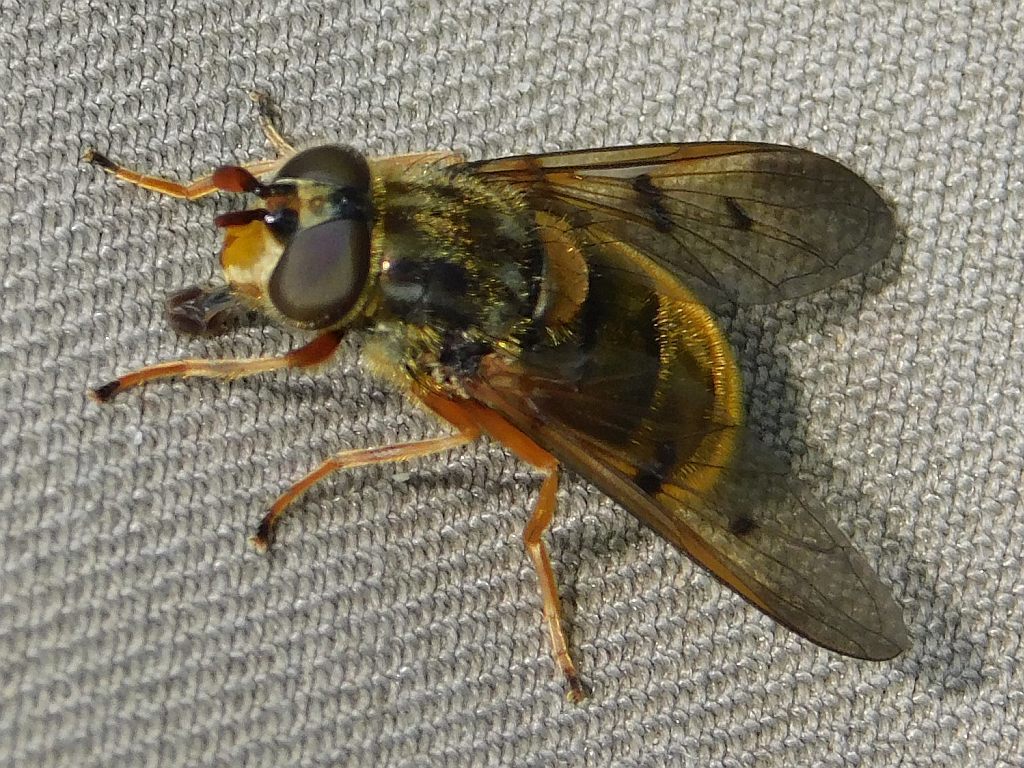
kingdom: Animalia
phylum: Arthropoda
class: Insecta
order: Diptera
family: Syrphidae
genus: Ferdinandea
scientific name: Ferdinandea cuprea
